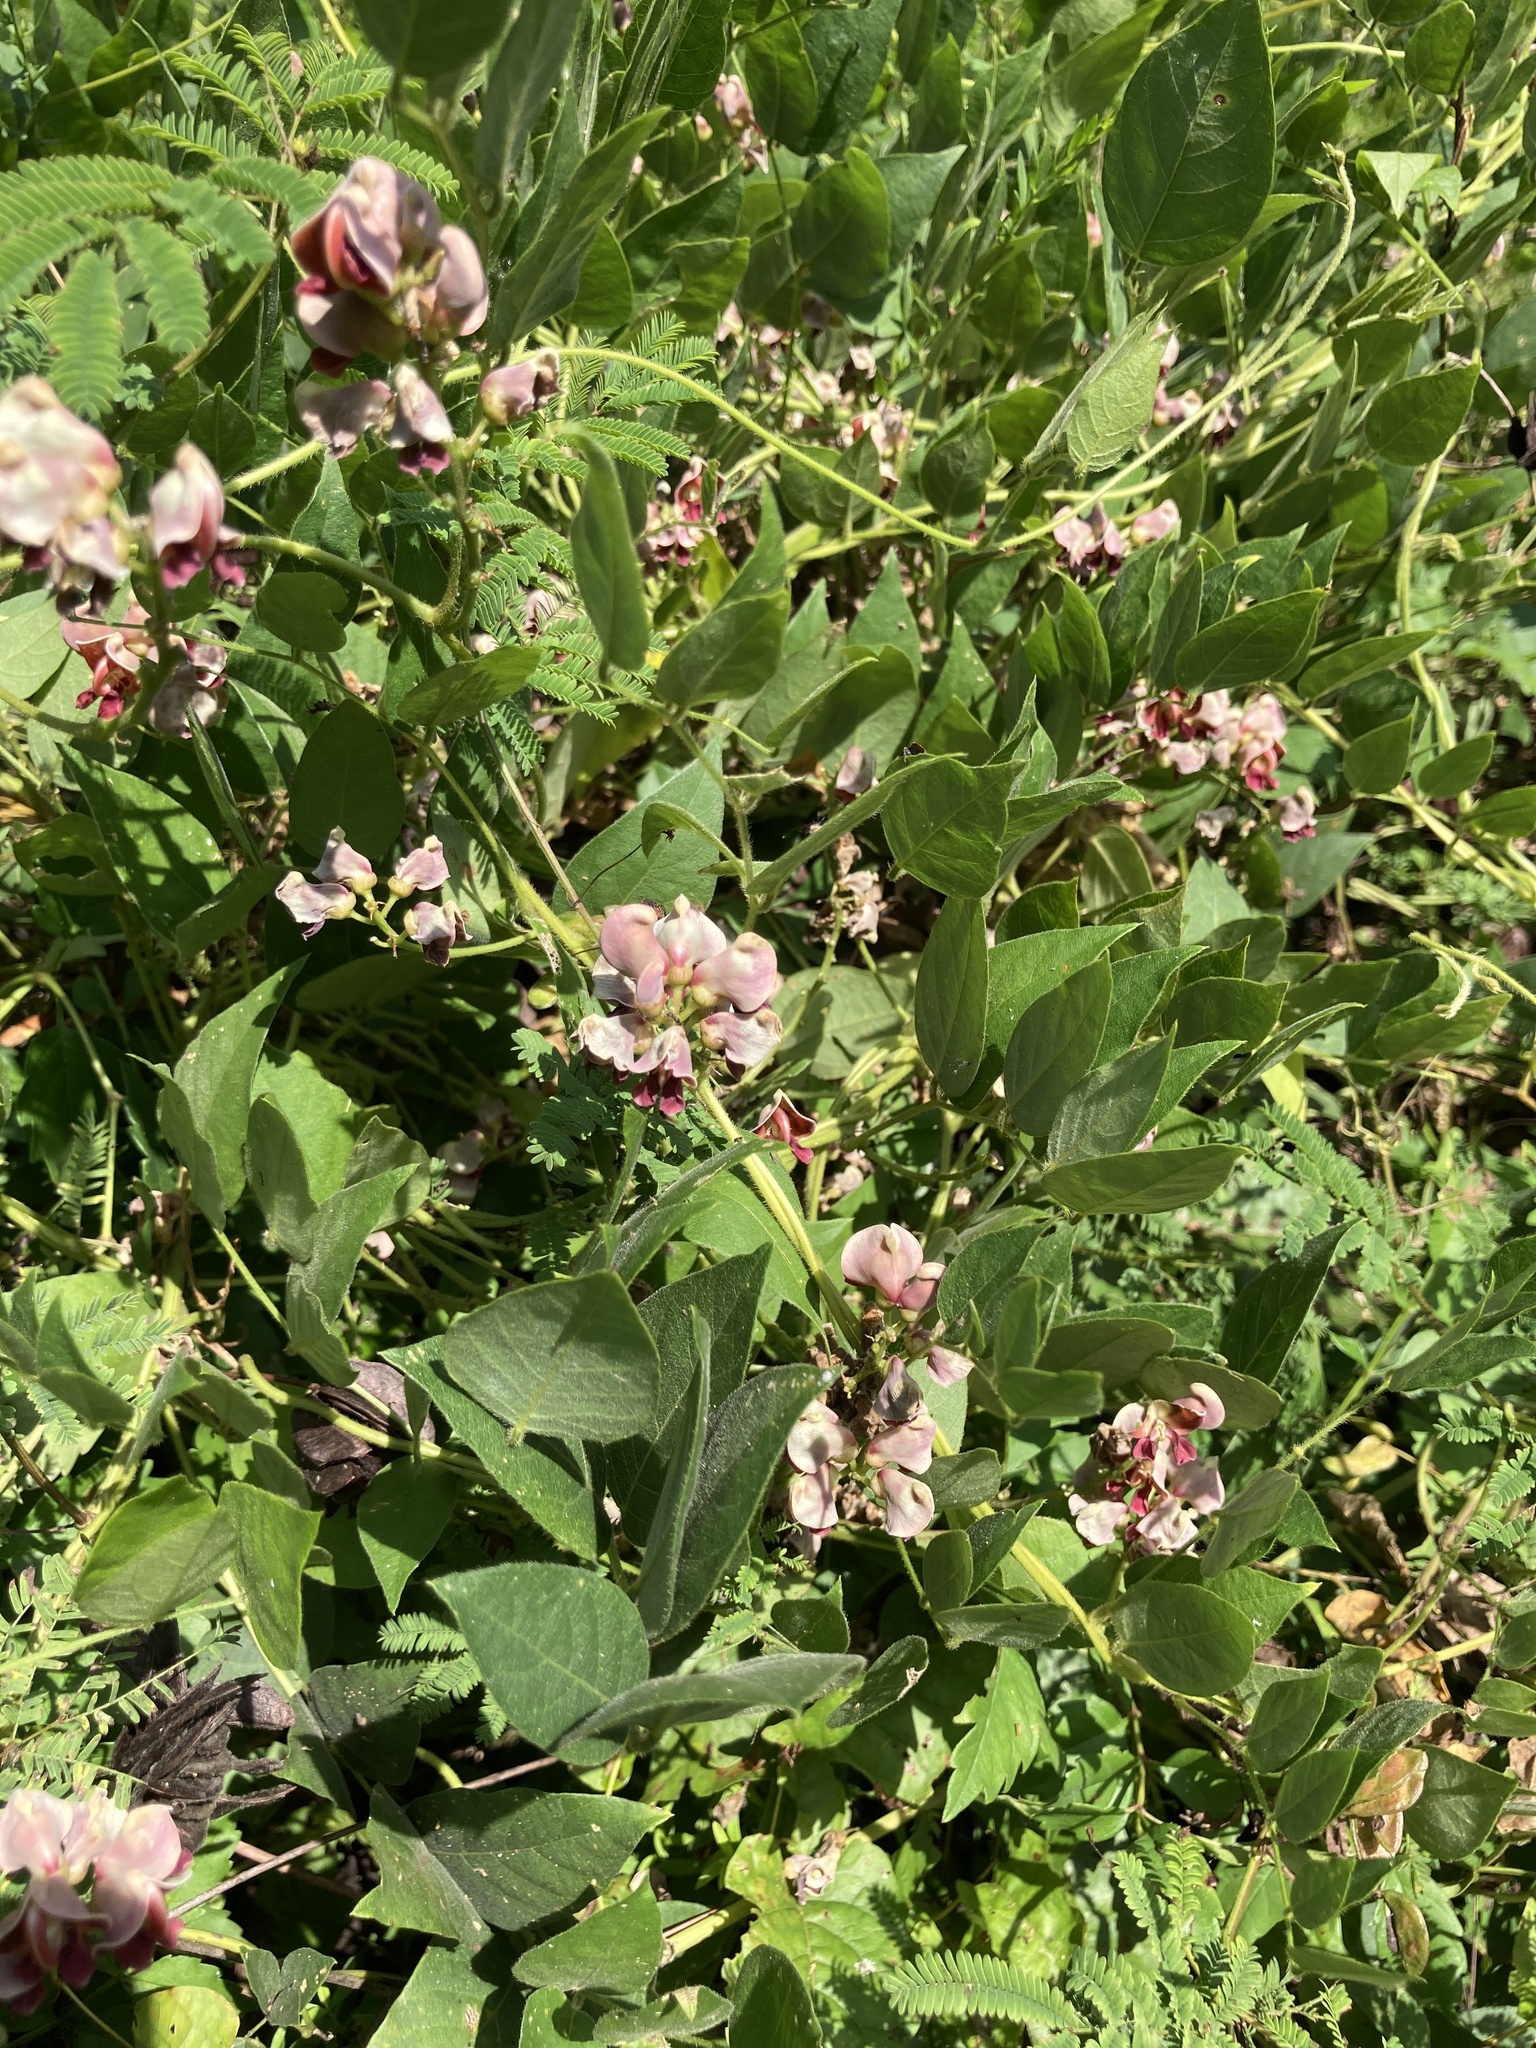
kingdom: Plantae
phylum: Tracheophyta
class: Magnoliopsida
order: Fabales
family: Fabaceae
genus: Apios
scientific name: Apios americana
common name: American potato-bean
